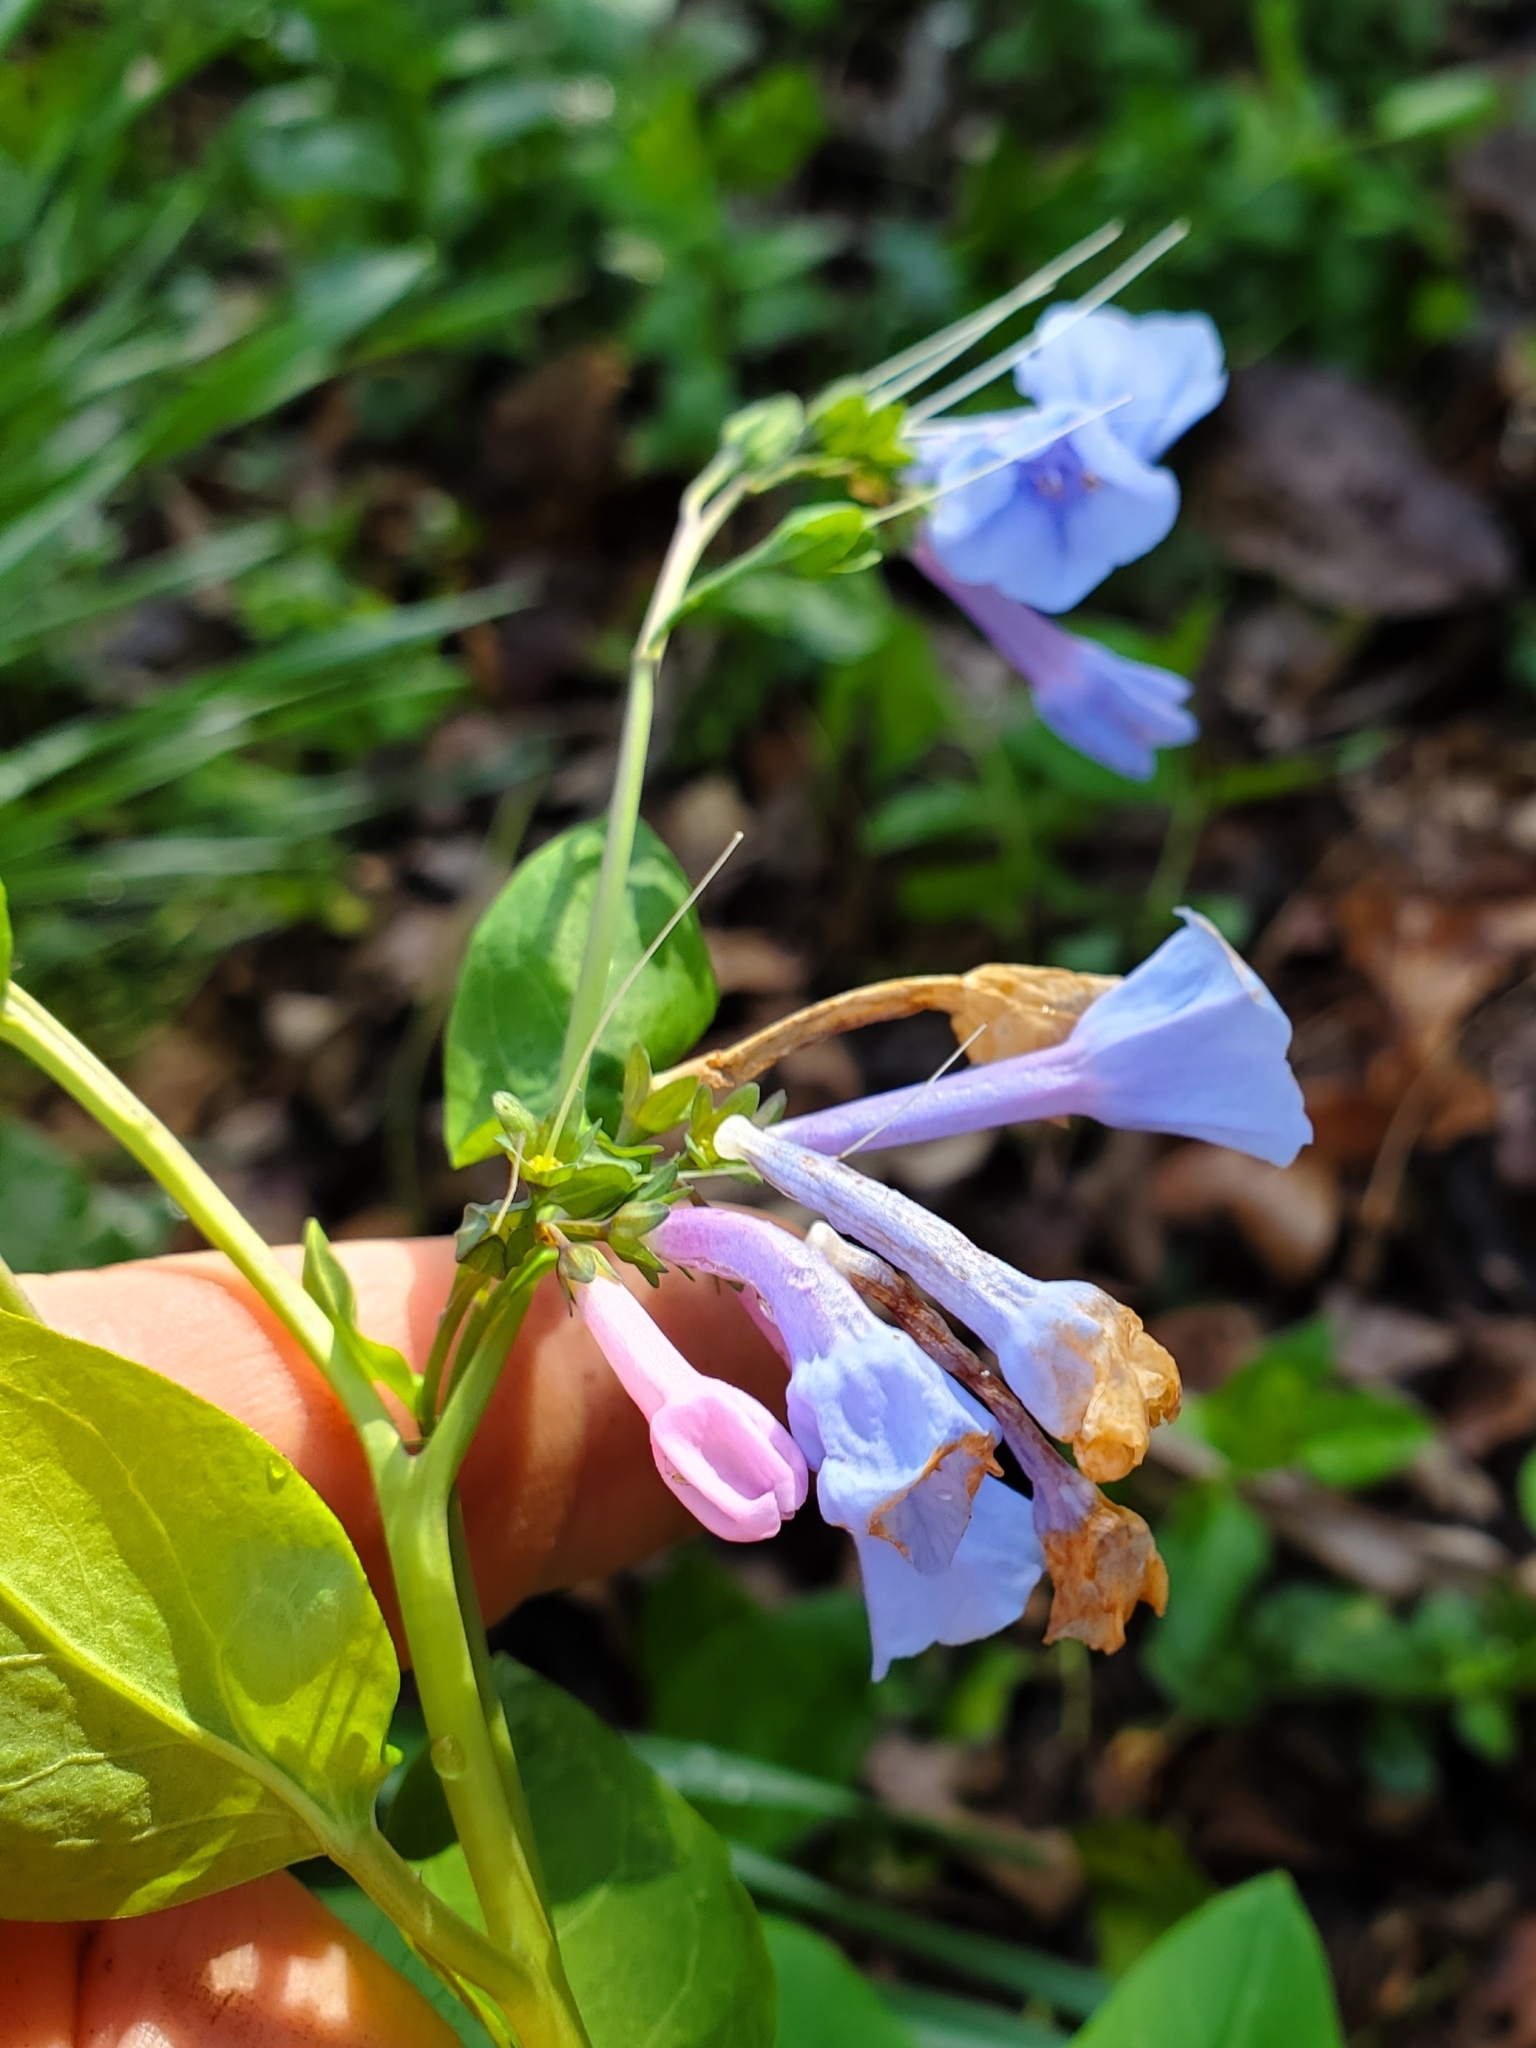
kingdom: Plantae
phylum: Tracheophyta
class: Magnoliopsida
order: Boraginales
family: Boraginaceae
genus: Mertensia
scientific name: Mertensia virginica
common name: Virginia bluebells
